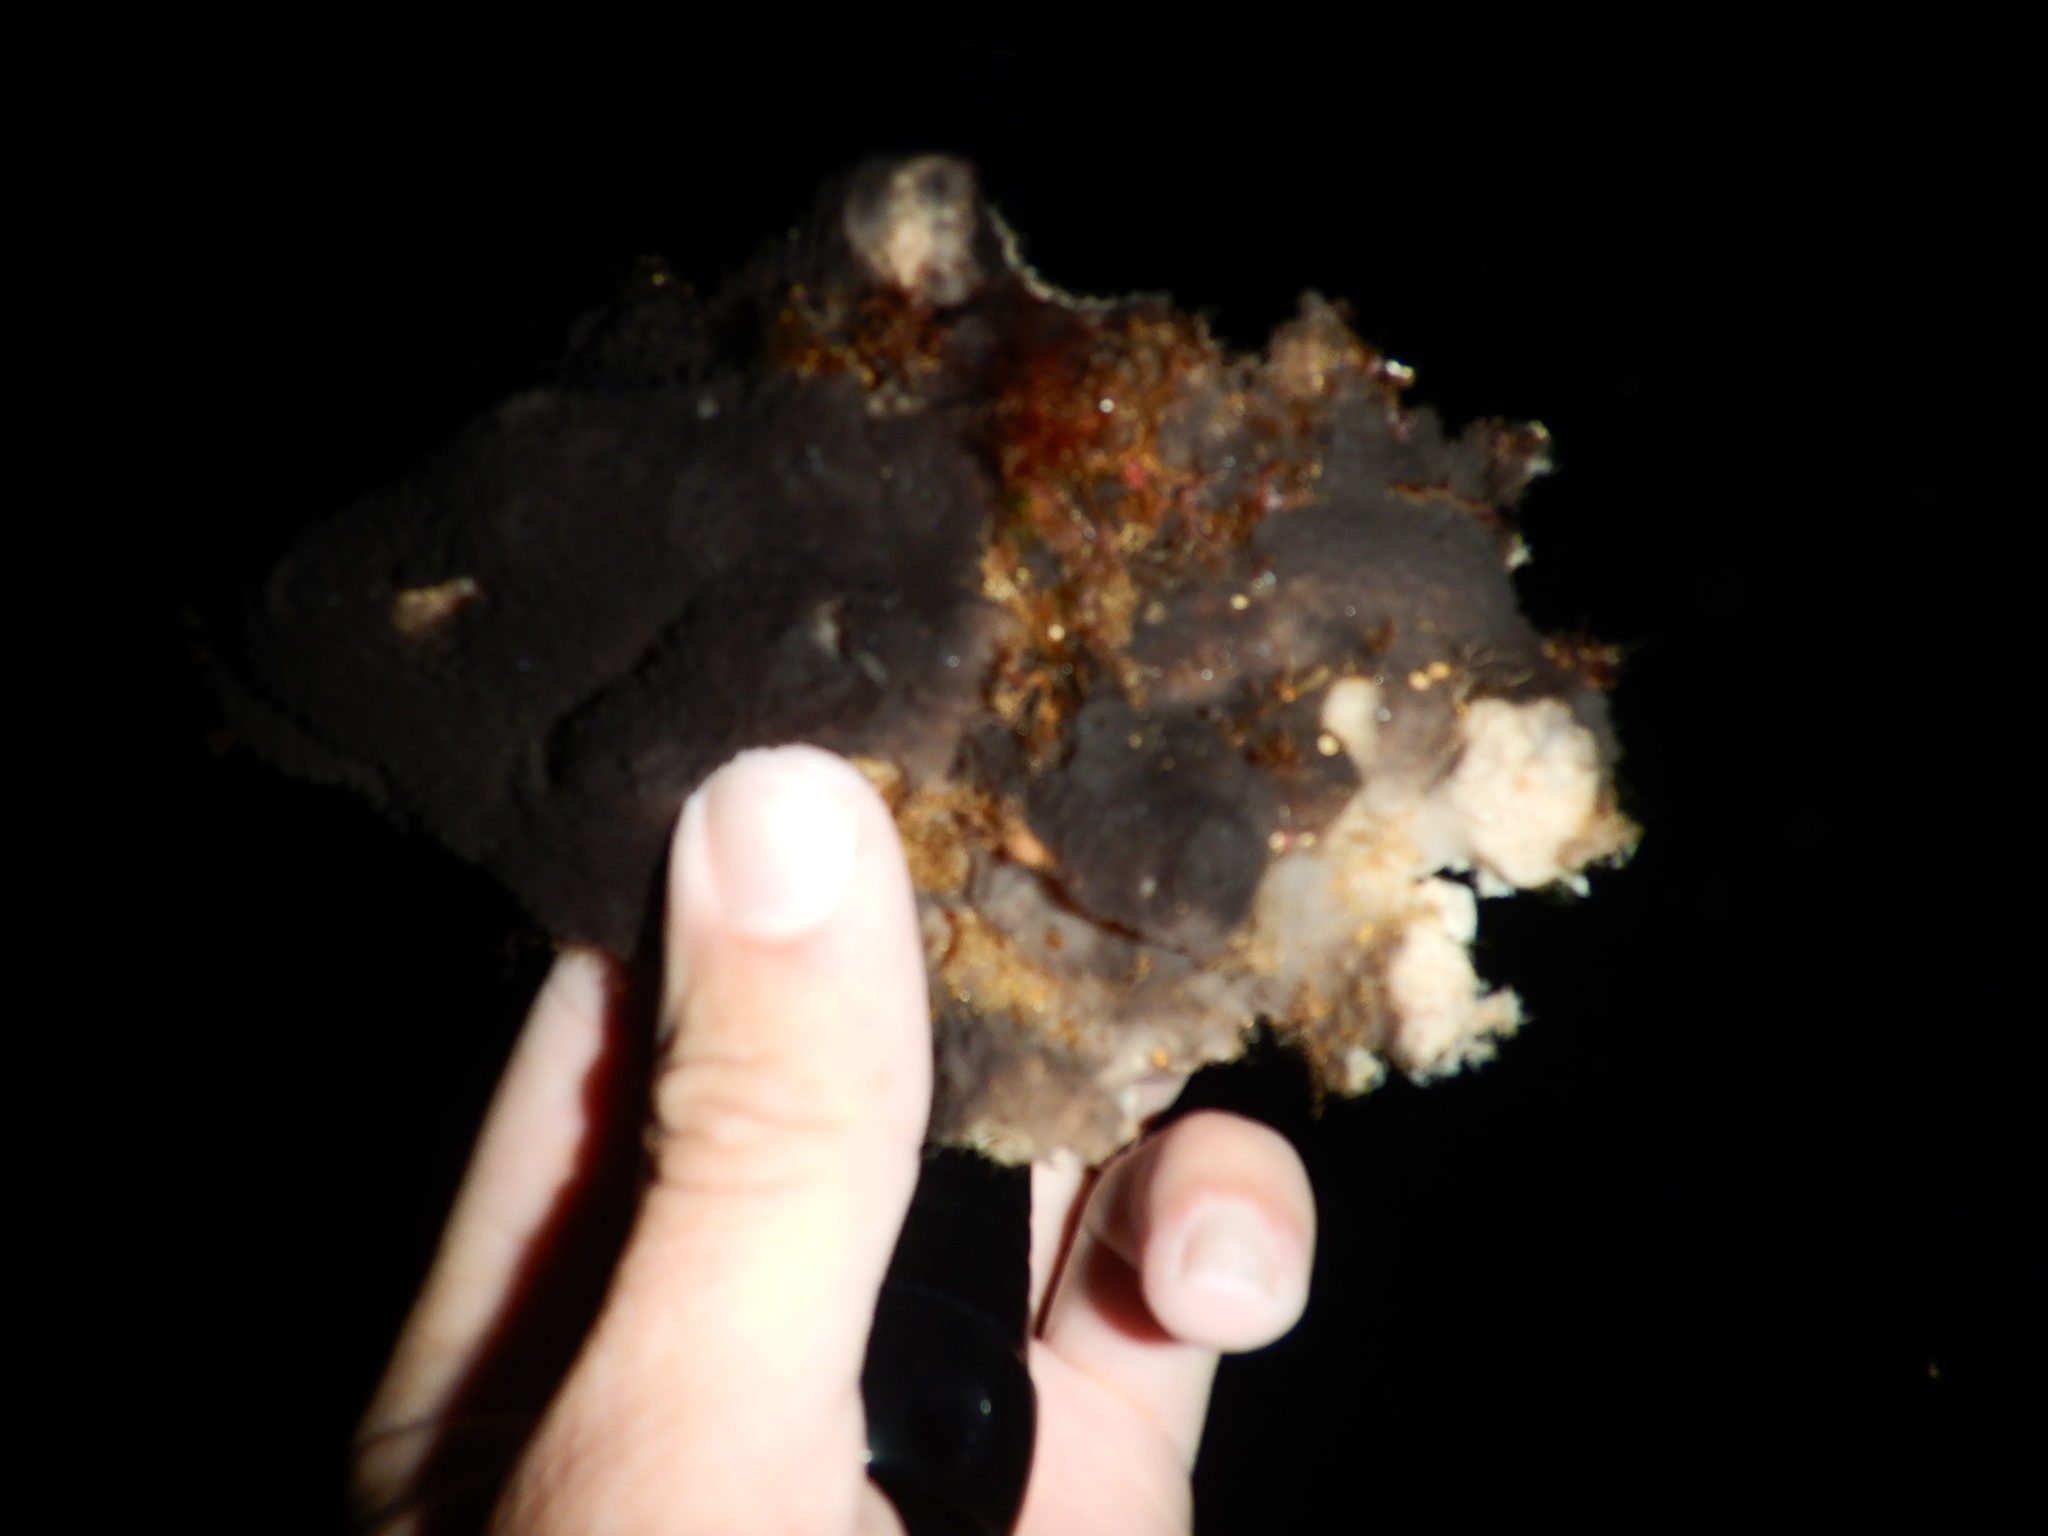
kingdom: Animalia
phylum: Arthropoda
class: Malacostraca
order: Decapoda
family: Dromiidae
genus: Dromia
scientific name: Dromia personata
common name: Sleepy crab
